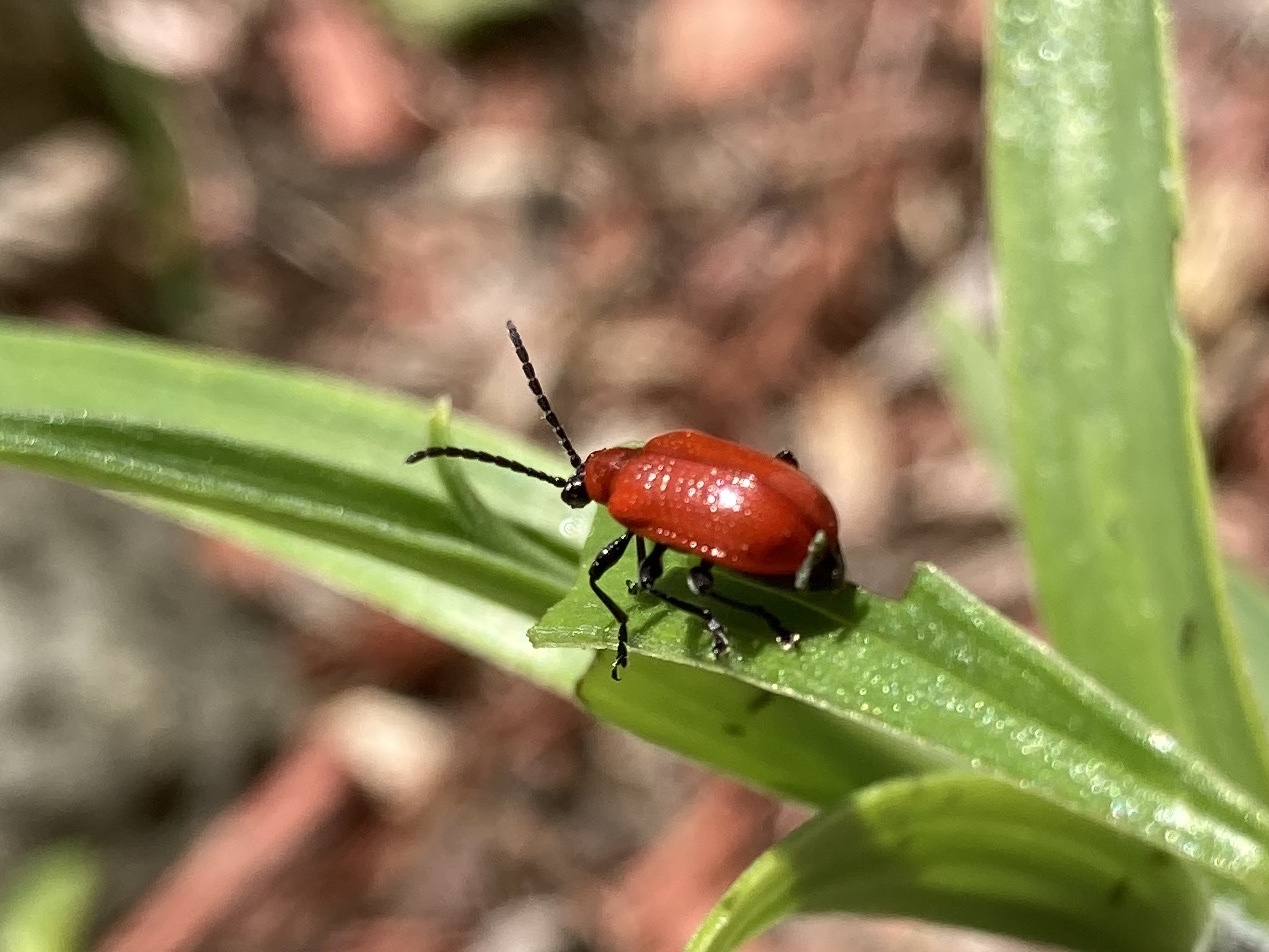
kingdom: Animalia
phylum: Arthropoda
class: Insecta
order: Coleoptera
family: Chrysomelidae
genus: Lilioceris
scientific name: Lilioceris lilii
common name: Lily beetle
